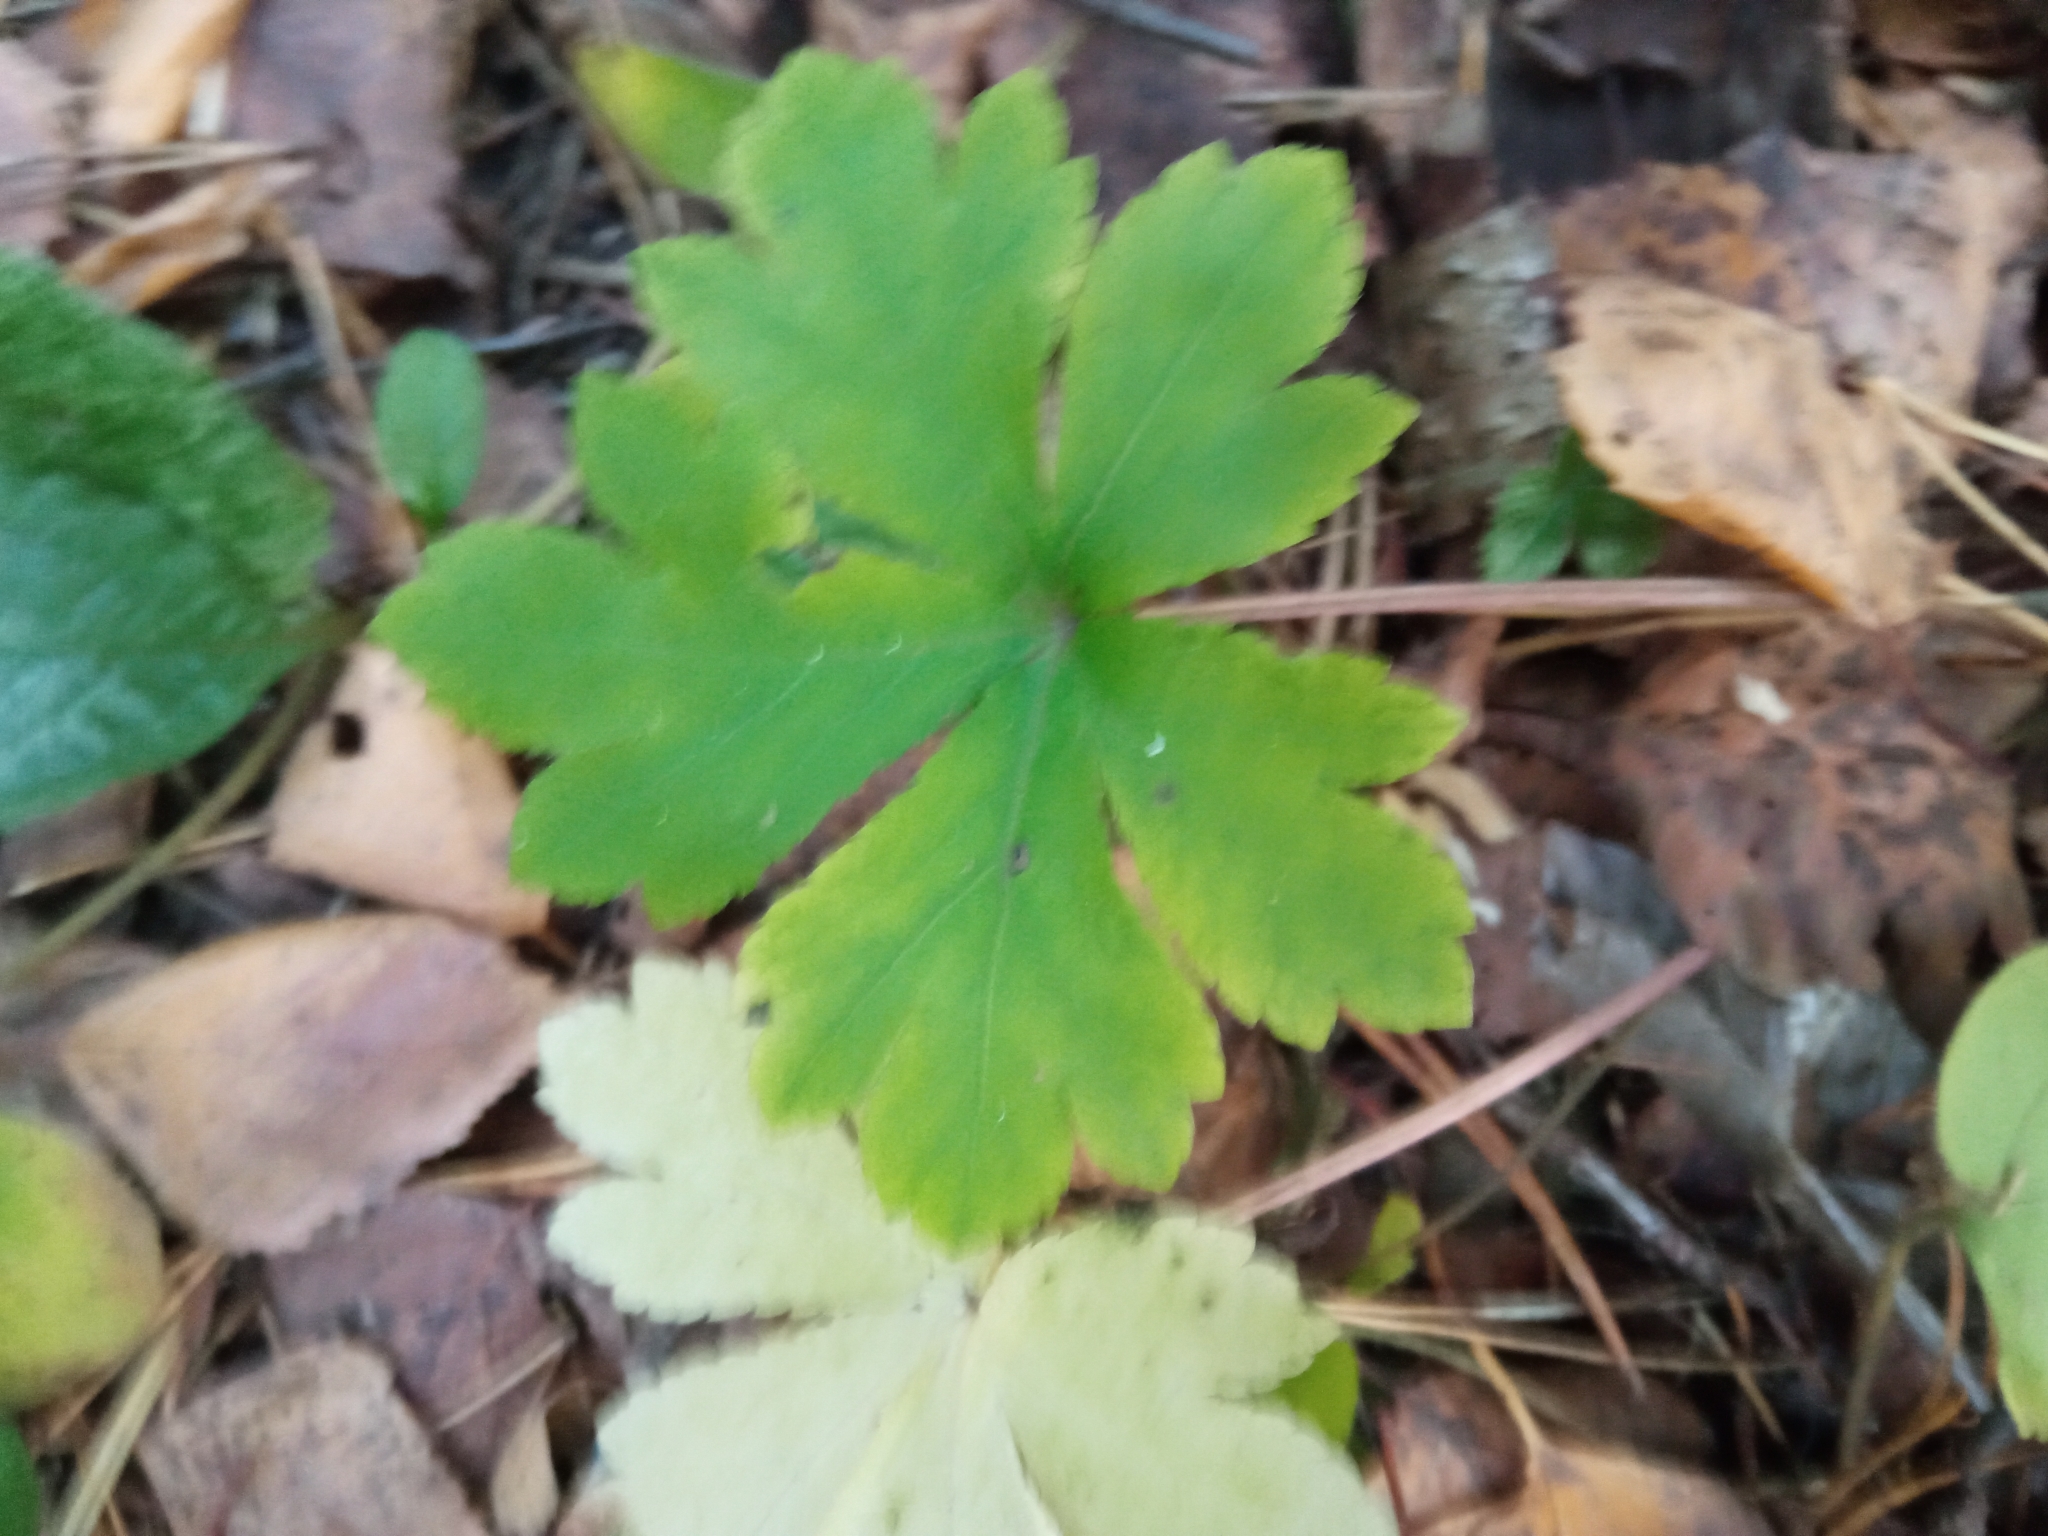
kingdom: Plantae
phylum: Tracheophyta
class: Magnoliopsida
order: Apiales
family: Apiaceae
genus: Sanicula
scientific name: Sanicula europaea
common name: Sanicle
